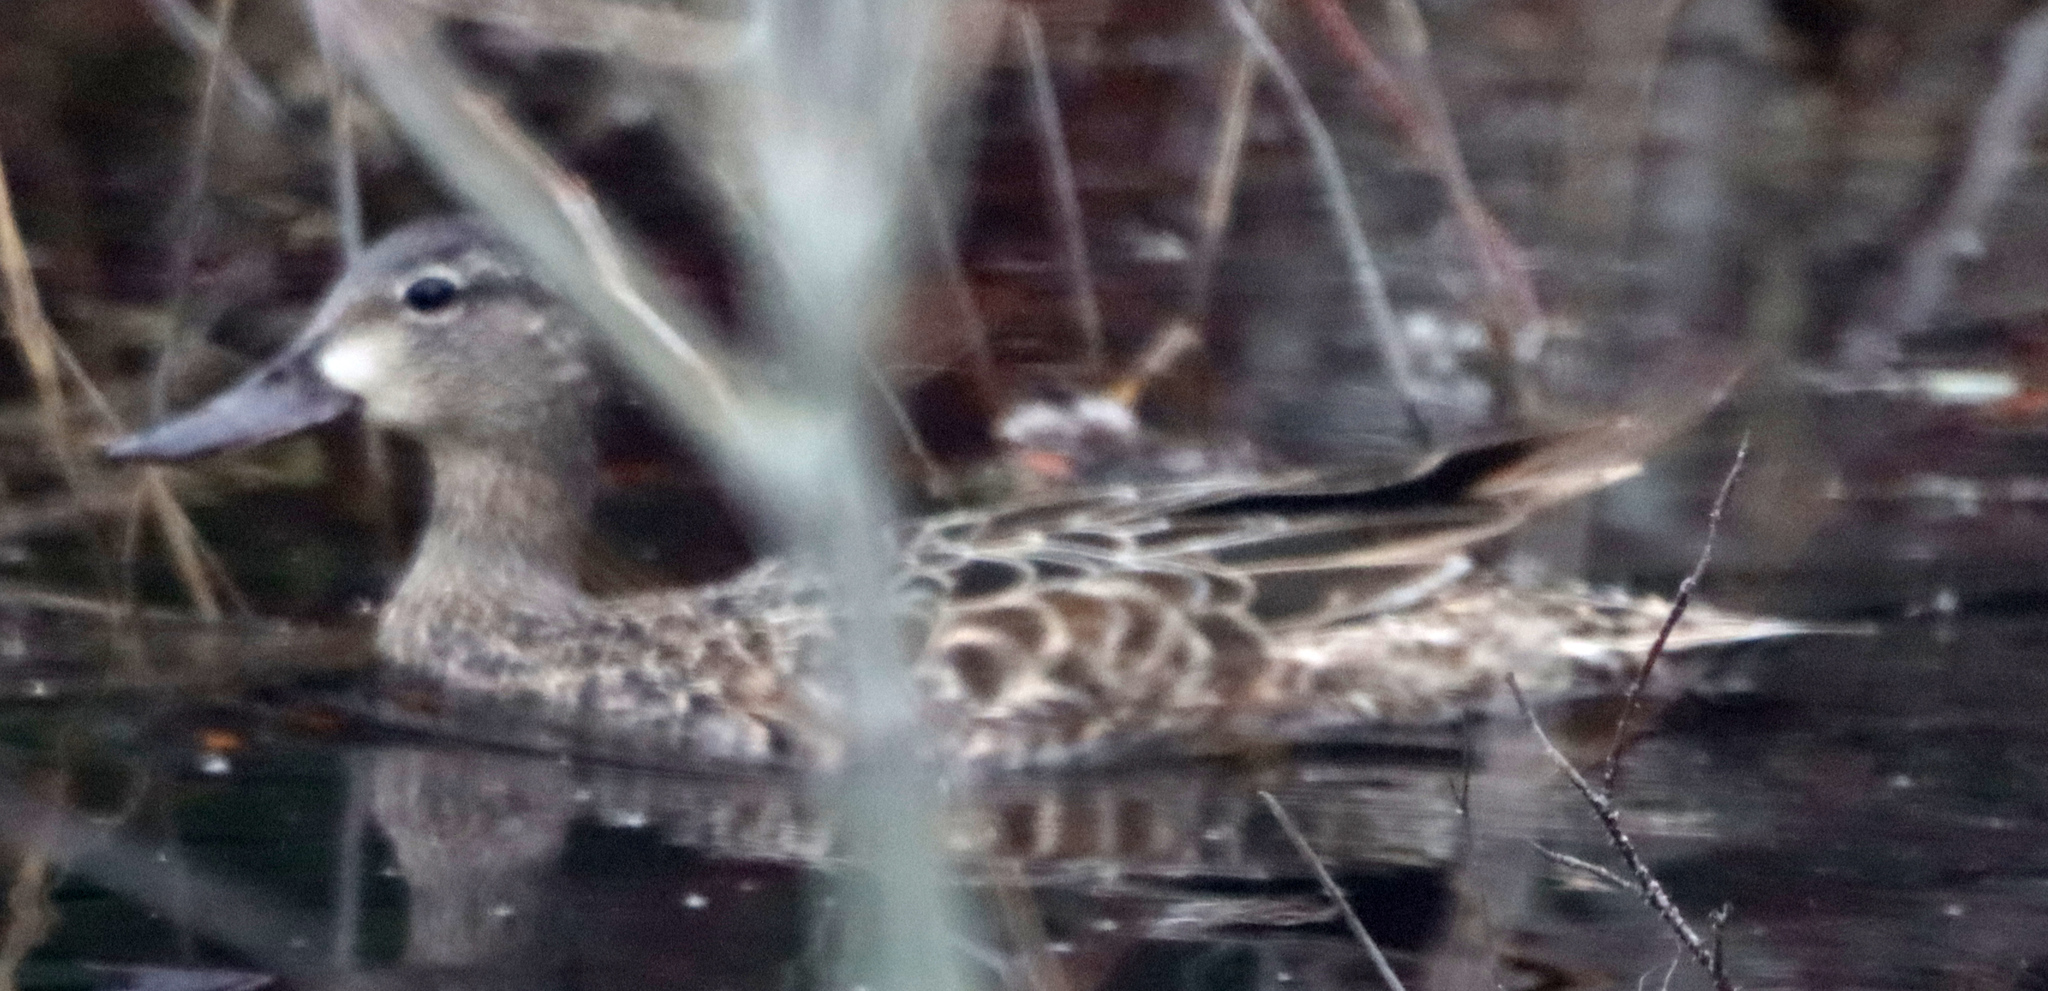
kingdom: Animalia
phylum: Chordata
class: Aves
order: Anseriformes
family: Anatidae
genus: Spatula
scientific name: Spatula discors
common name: Blue-winged teal
